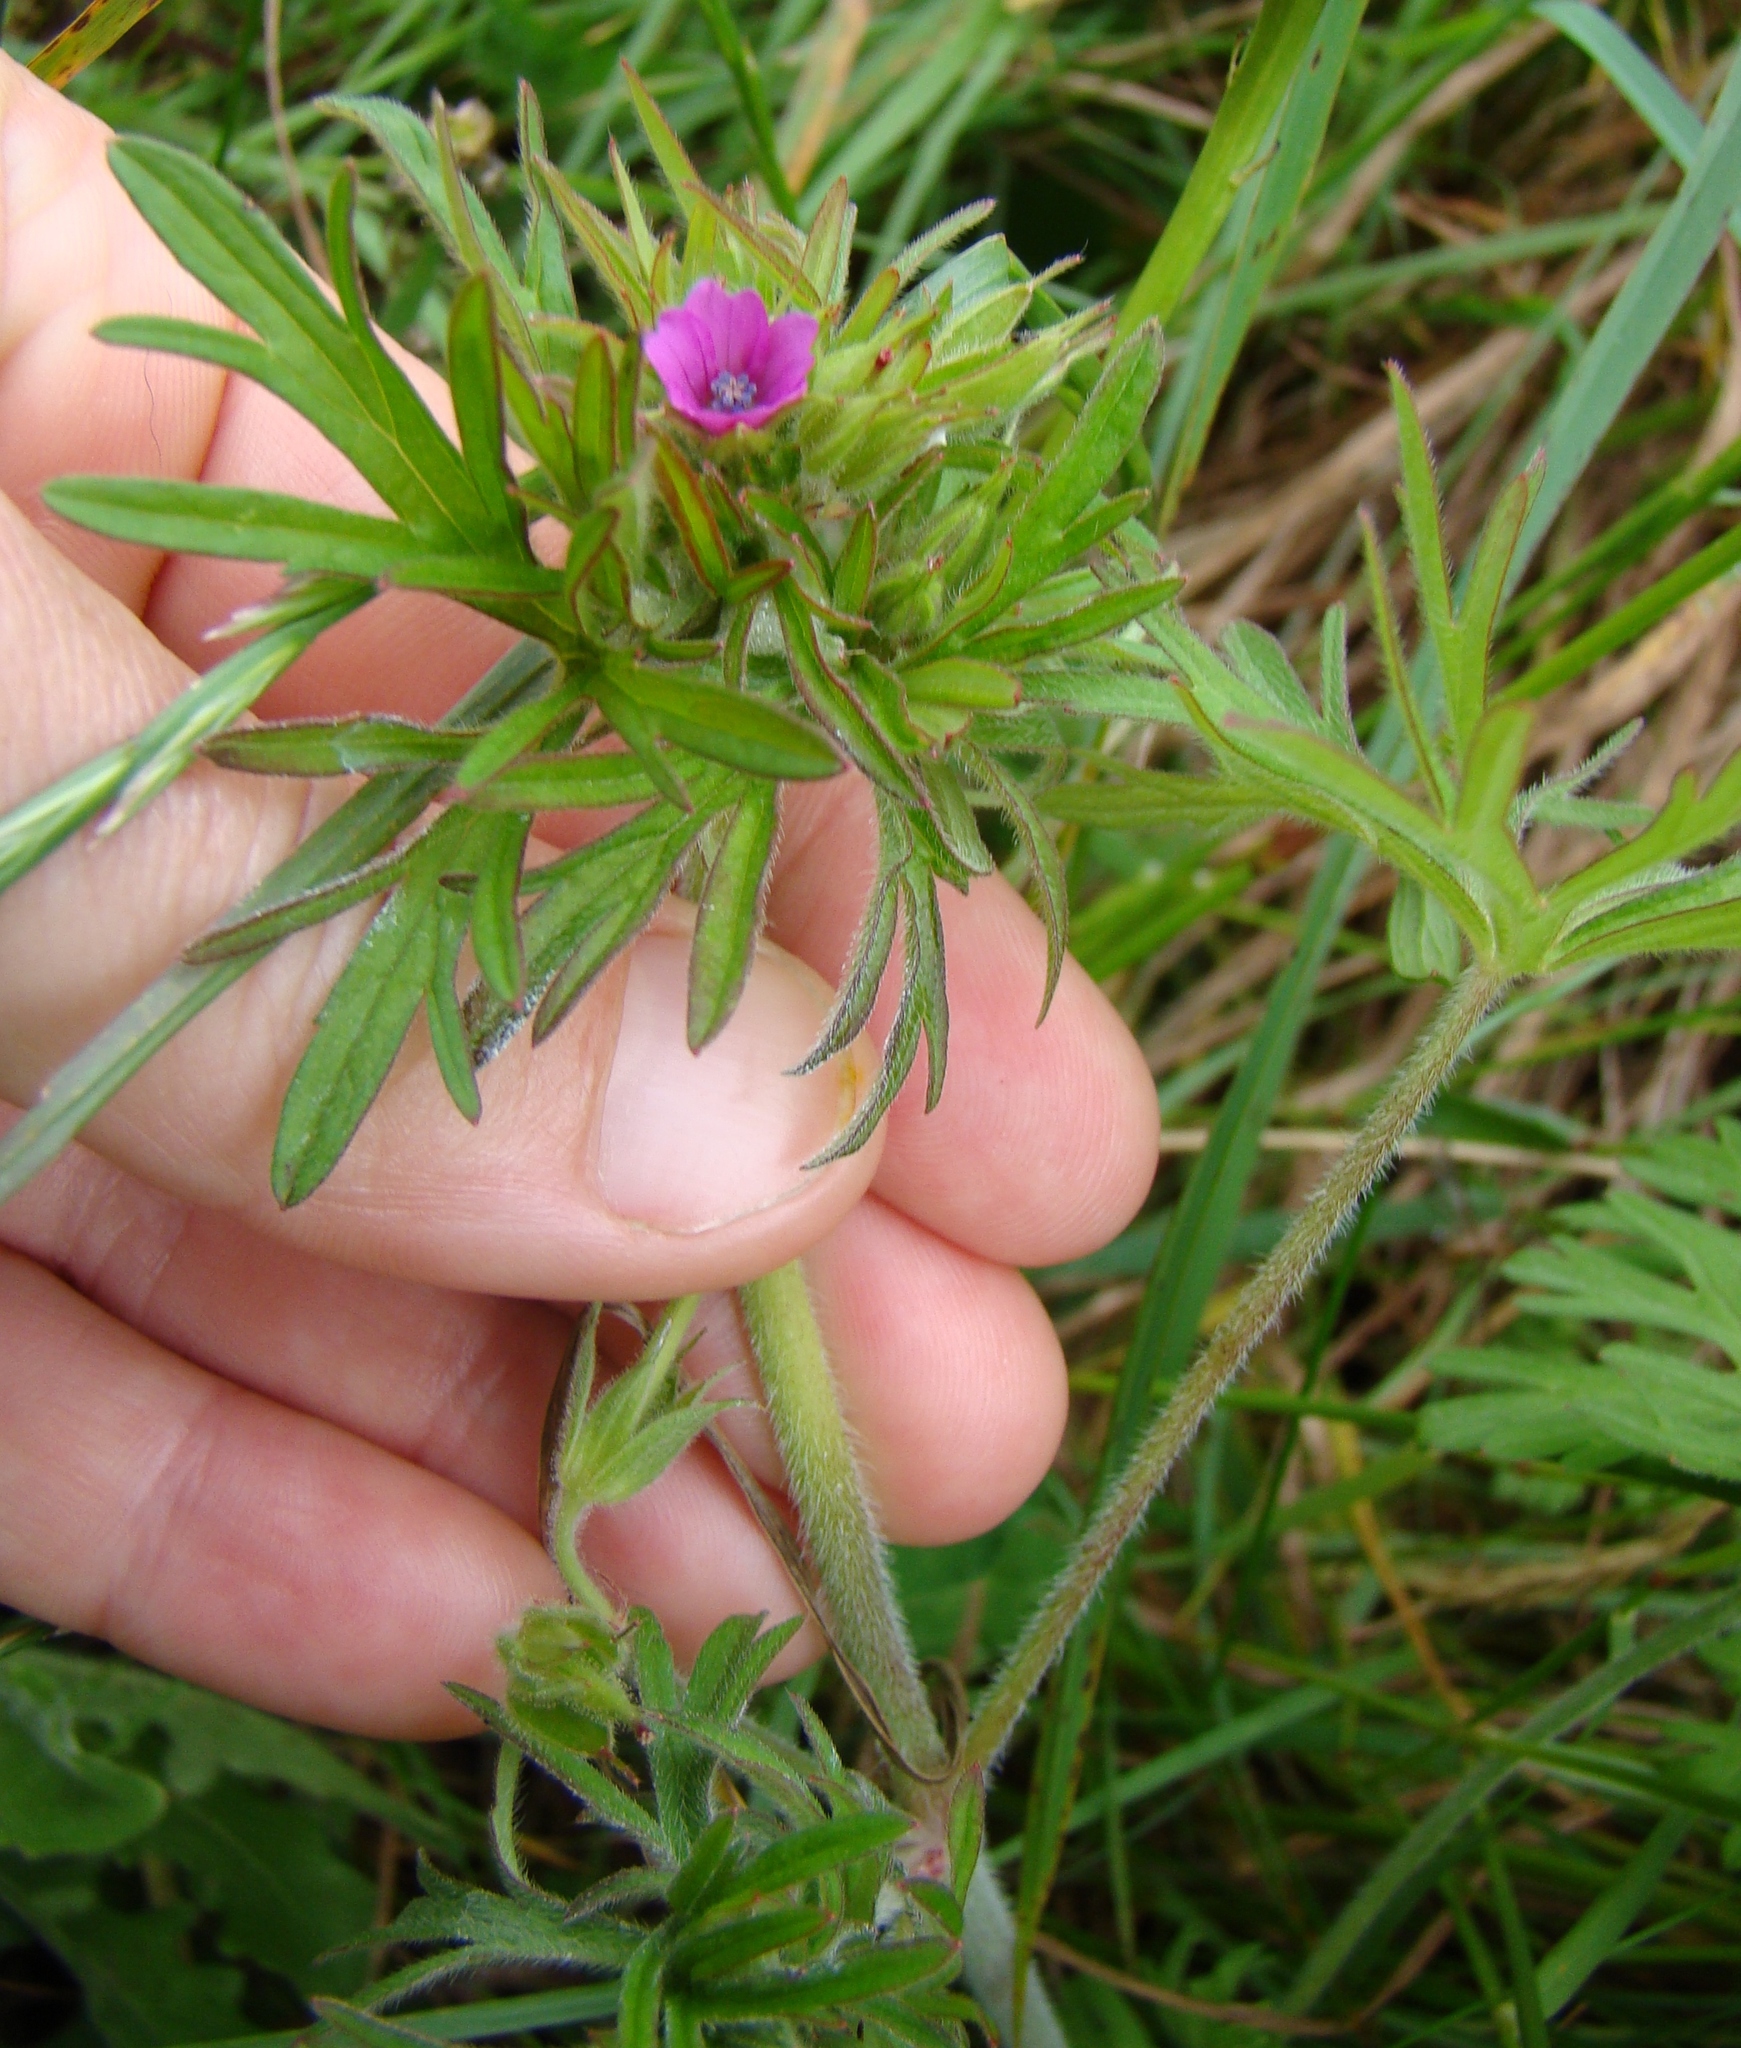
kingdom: Plantae
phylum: Tracheophyta
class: Magnoliopsida
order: Geraniales
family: Geraniaceae
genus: Geranium
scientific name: Geranium dissectum
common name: Cut-leaved crane's-bill
